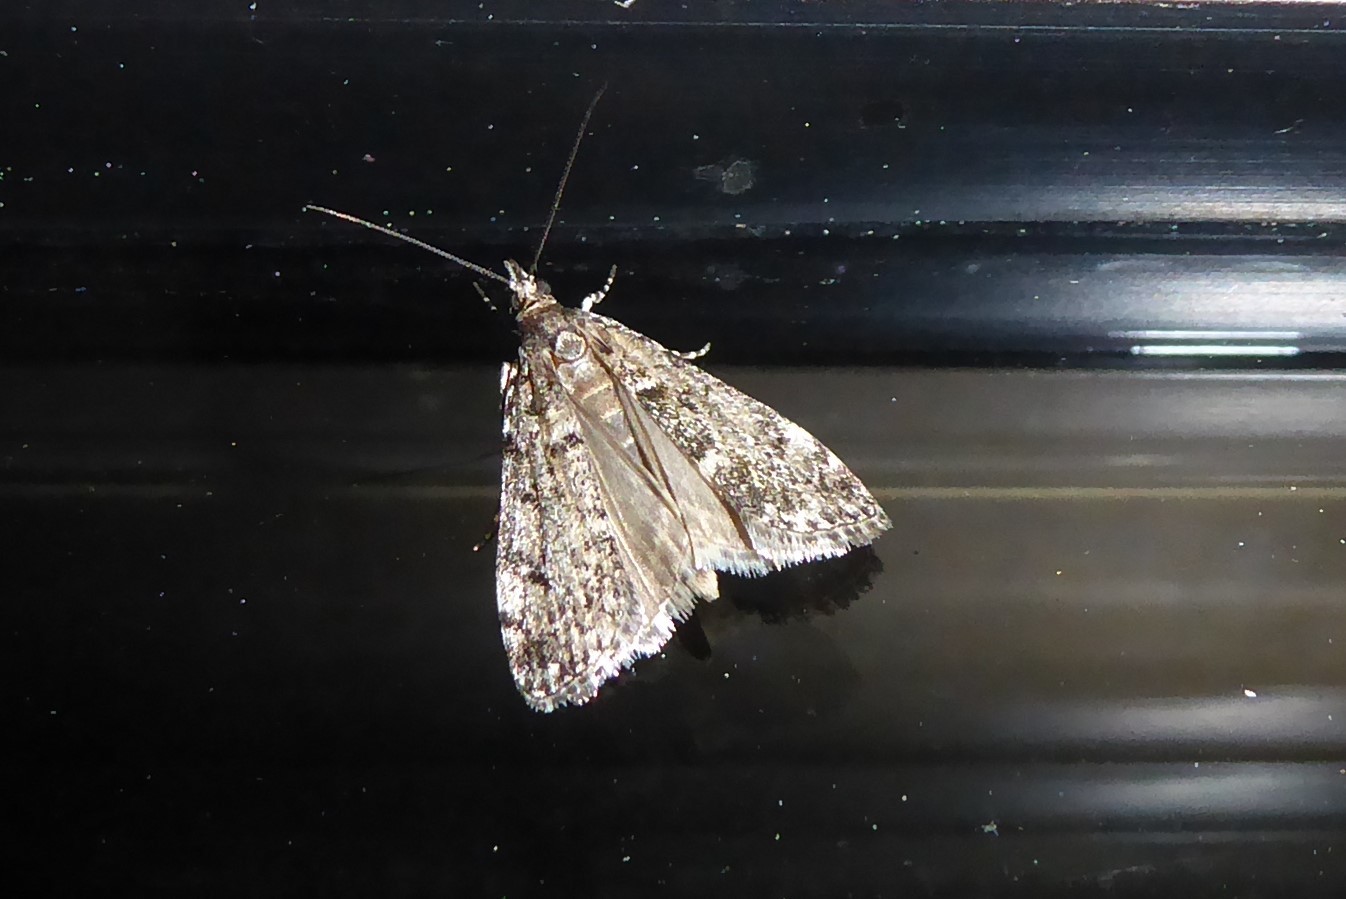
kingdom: Animalia
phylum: Arthropoda
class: Insecta
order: Lepidoptera
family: Crambidae
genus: Eudonia
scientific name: Eudonia philerga
